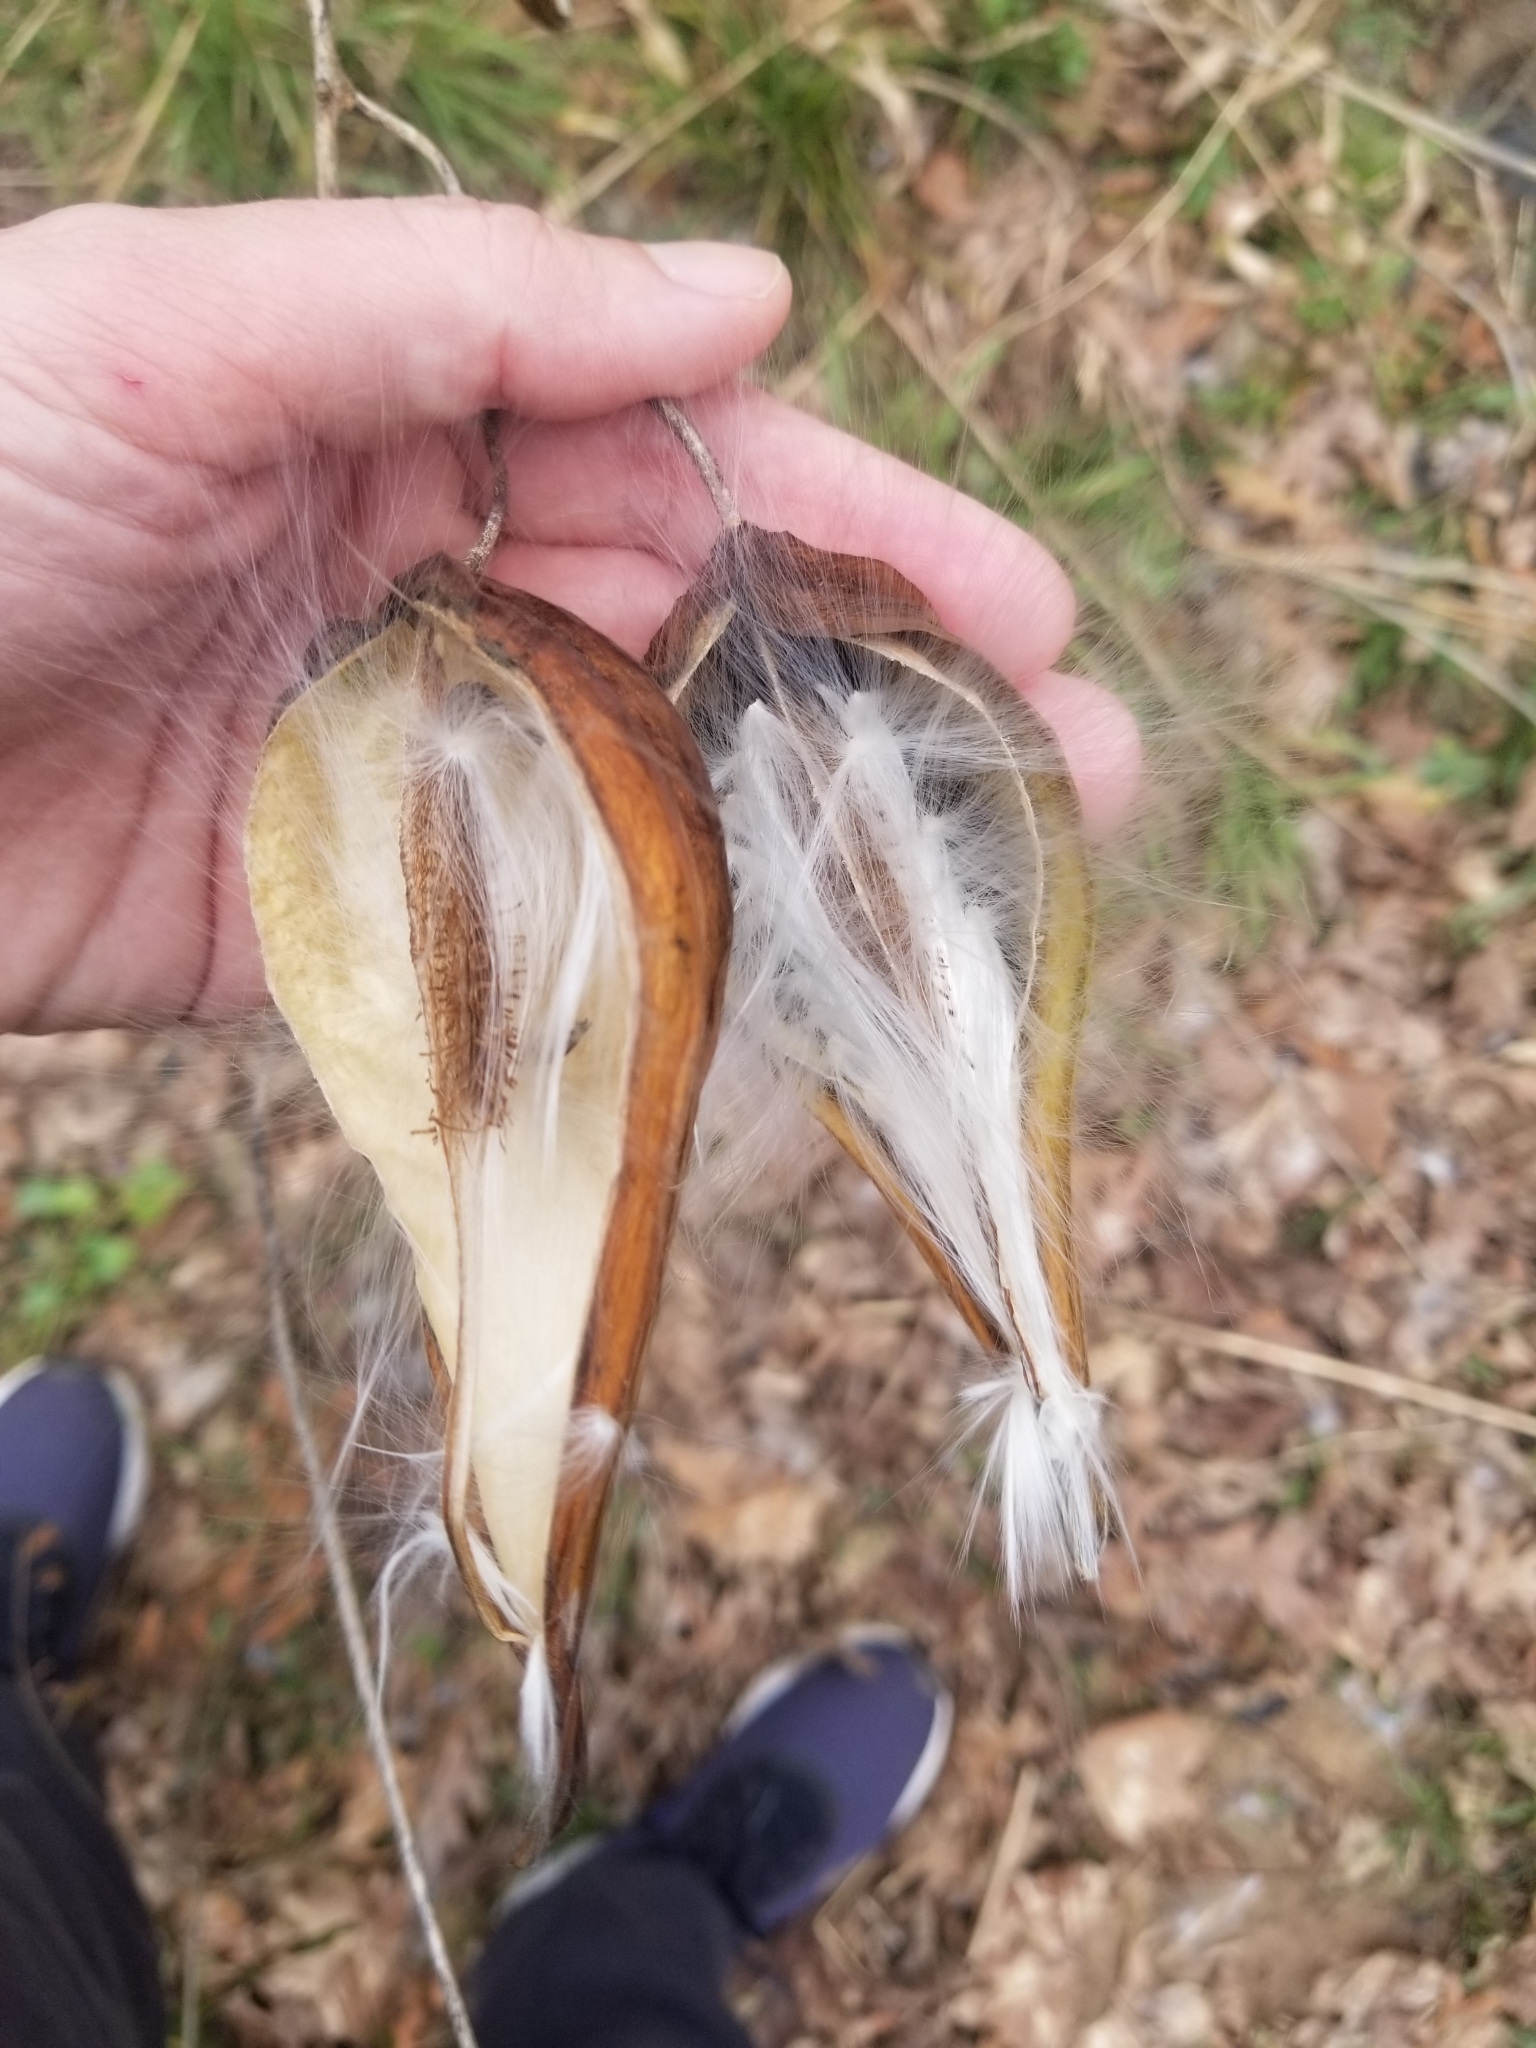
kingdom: Plantae
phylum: Tracheophyta
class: Magnoliopsida
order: Gentianales
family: Apocynaceae
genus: Gonolobus
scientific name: Gonolobus suberosus
